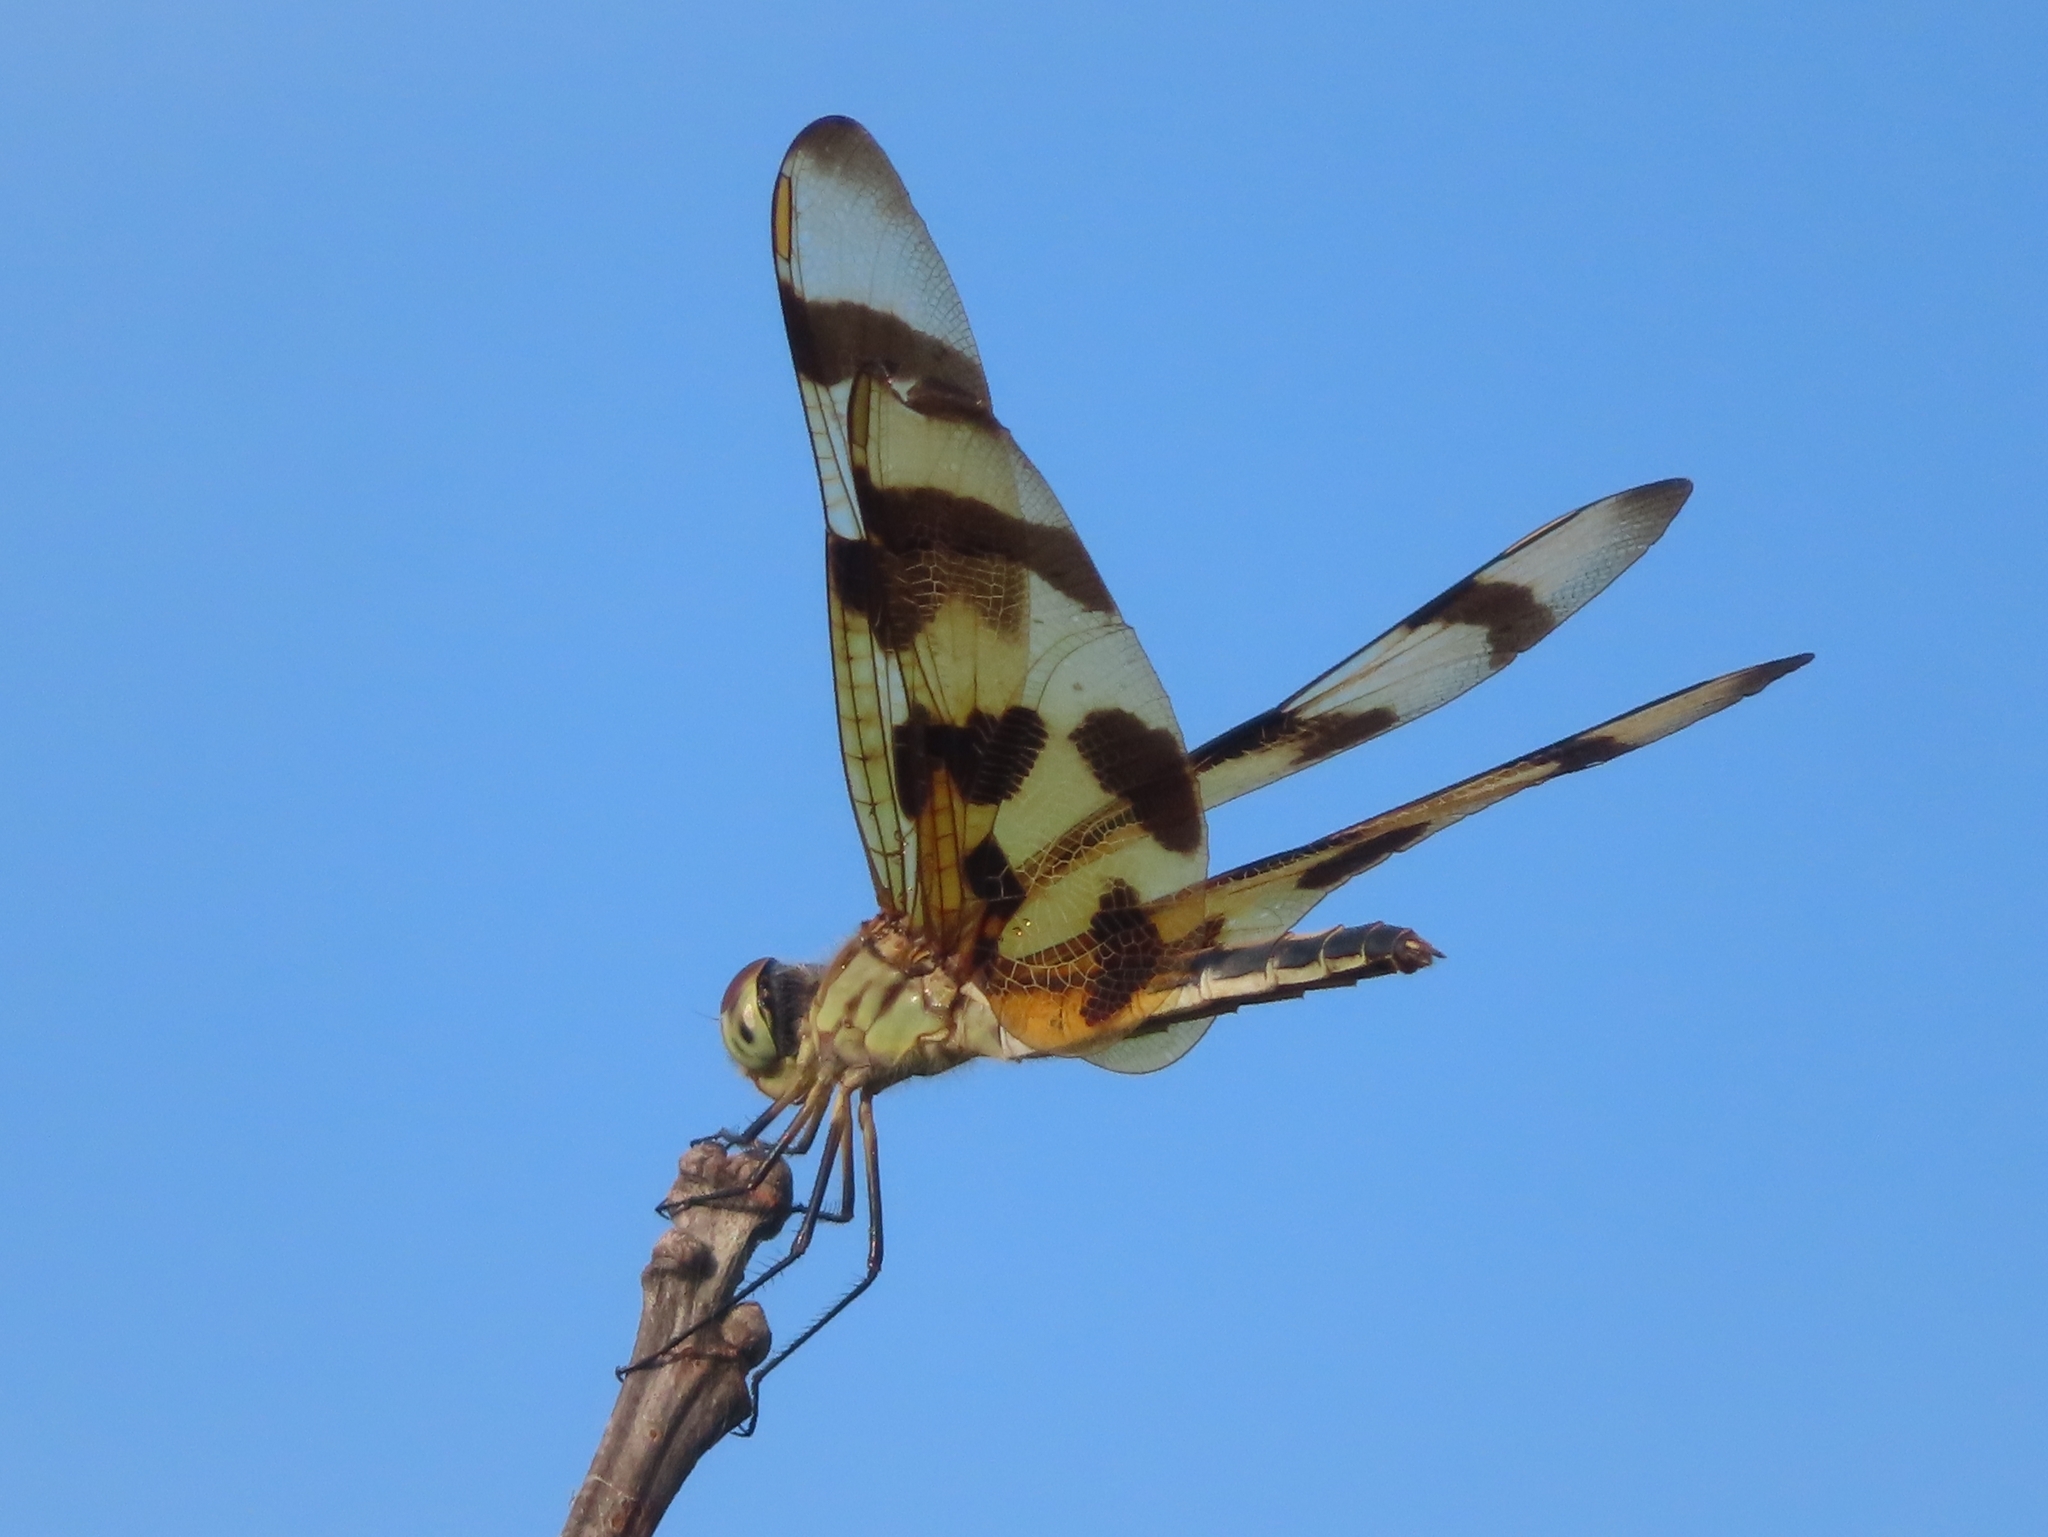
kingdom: Animalia
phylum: Arthropoda
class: Insecta
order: Odonata
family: Libellulidae
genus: Celithemis
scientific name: Celithemis eponina
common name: Halloween pennant
